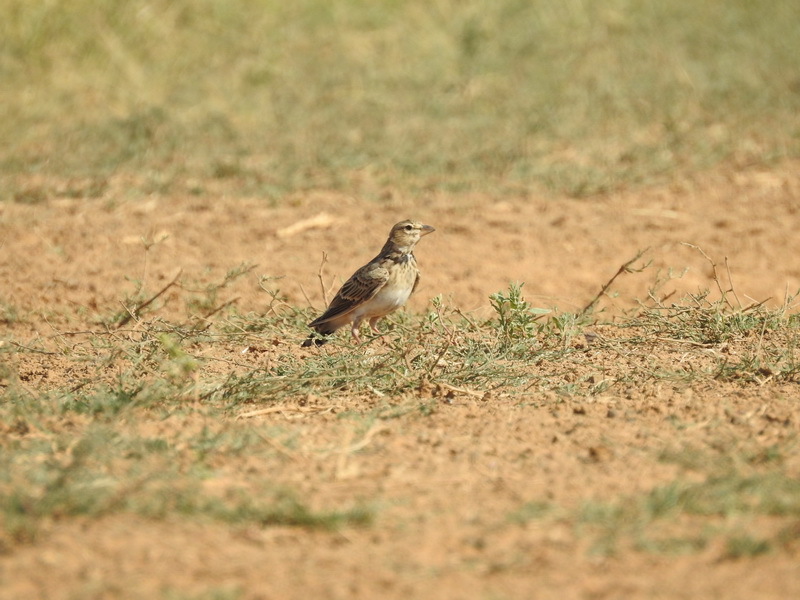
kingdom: Animalia
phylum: Chordata
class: Aves
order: Passeriformes
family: Alaudidae
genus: Melanocorypha
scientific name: Melanocorypha calandra
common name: Calandra lark
